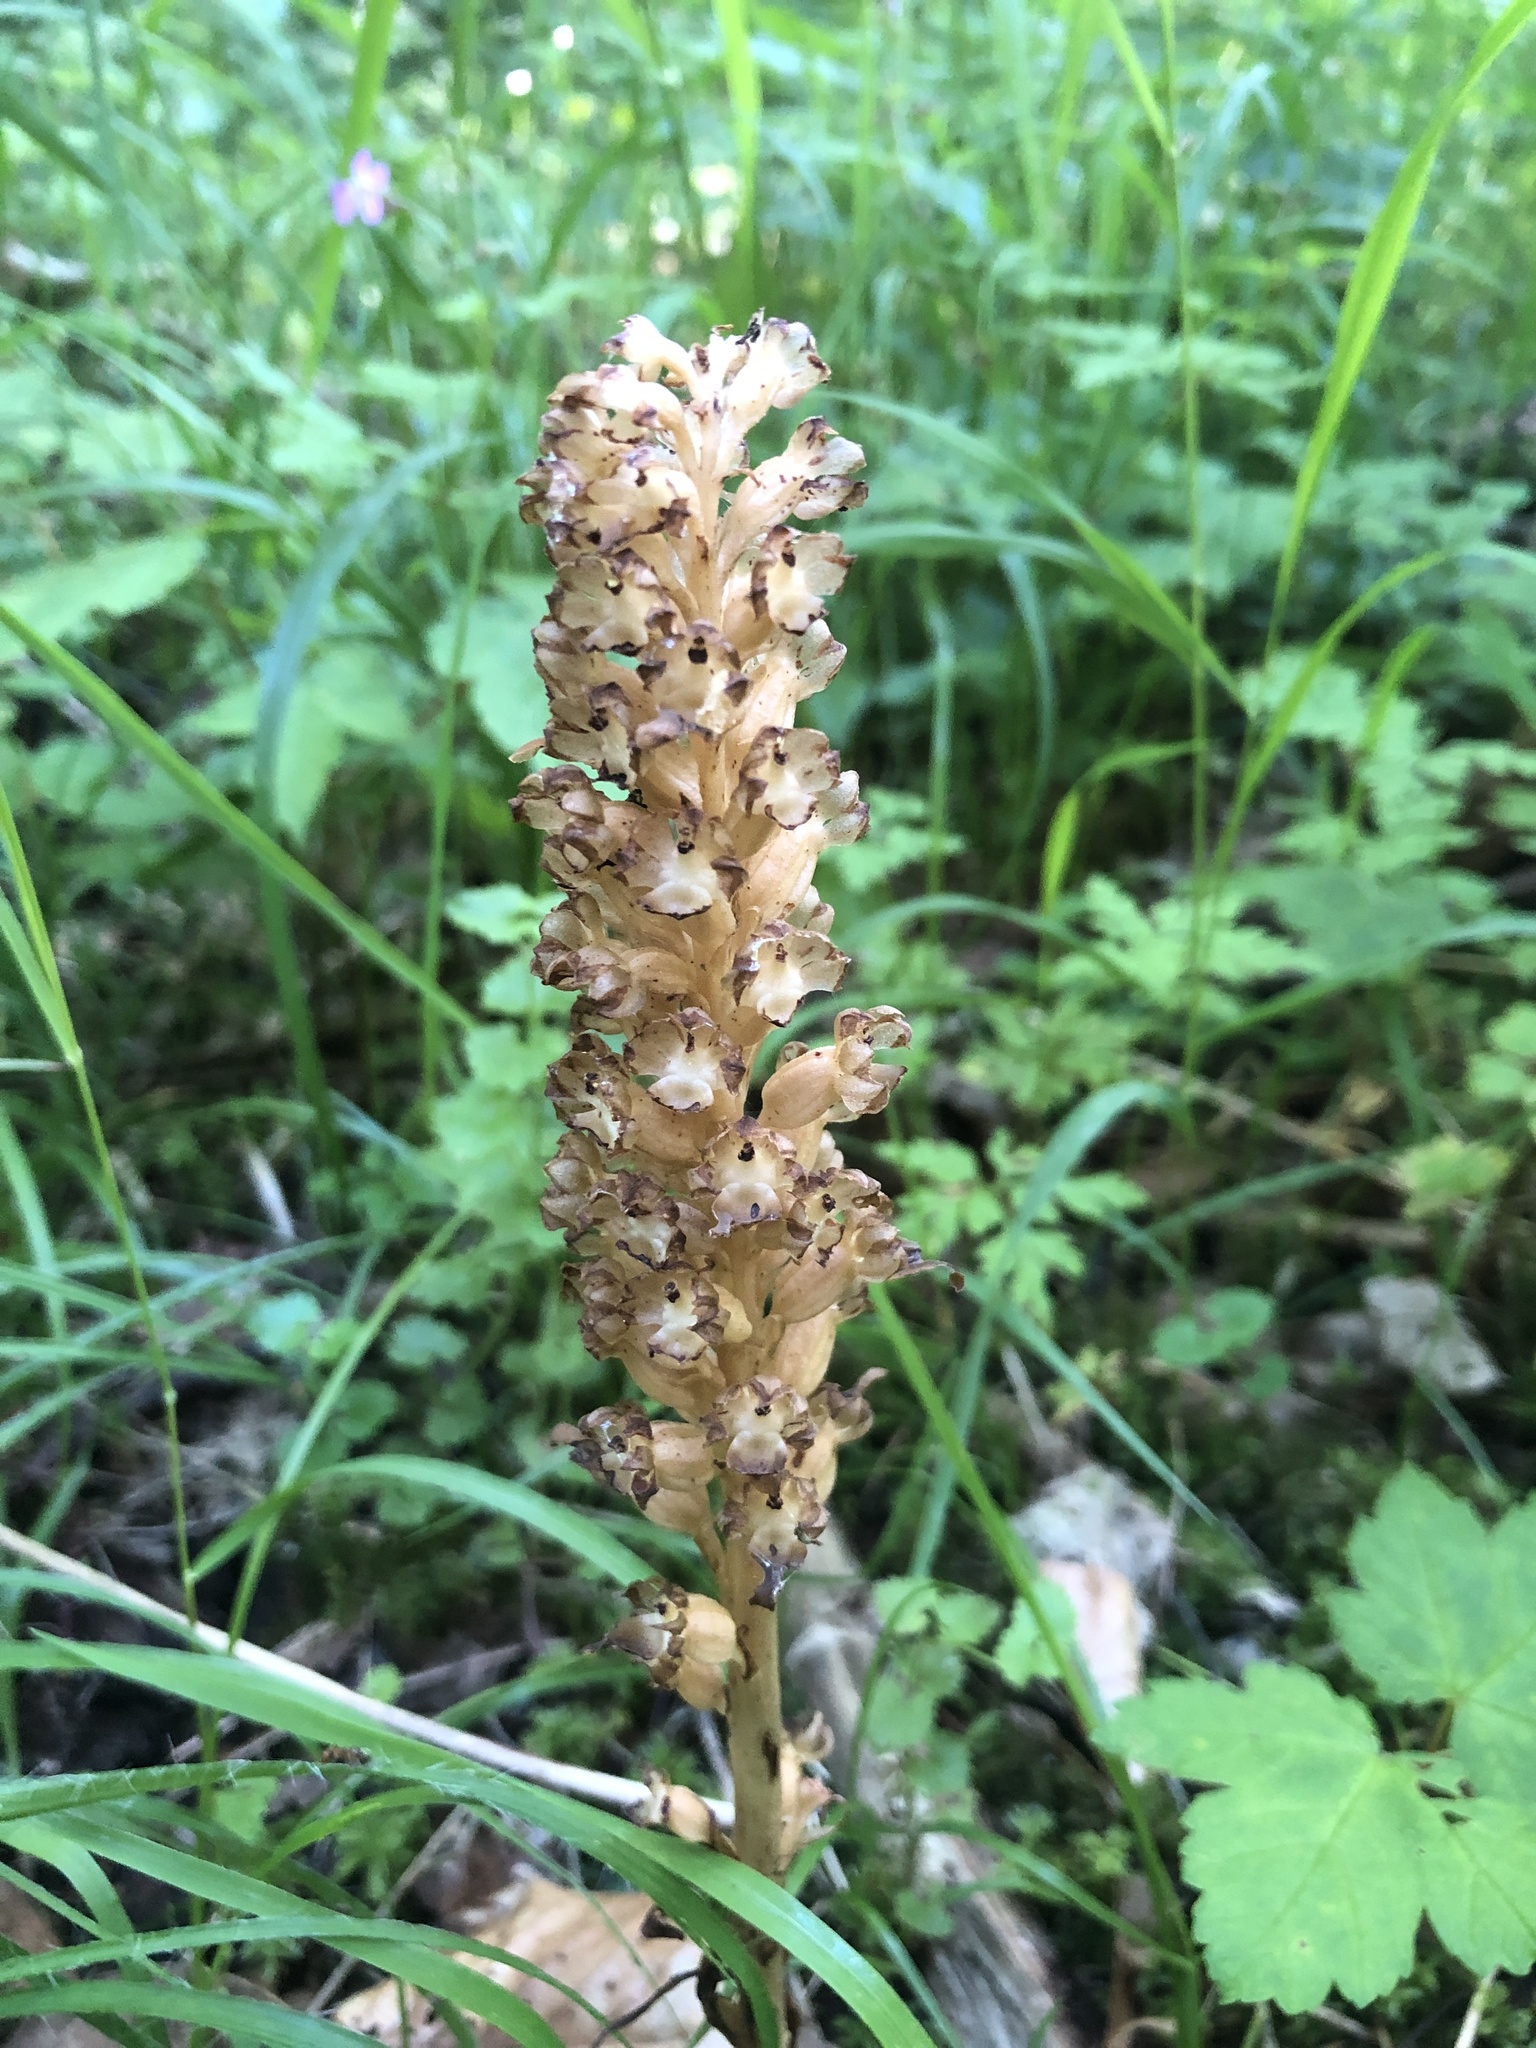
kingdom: Plantae
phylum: Tracheophyta
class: Liliopsida
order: Asparagales
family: Orchidaceae
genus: Neottia
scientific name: Neottia nidus-avis
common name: Bird's-nest orchid
